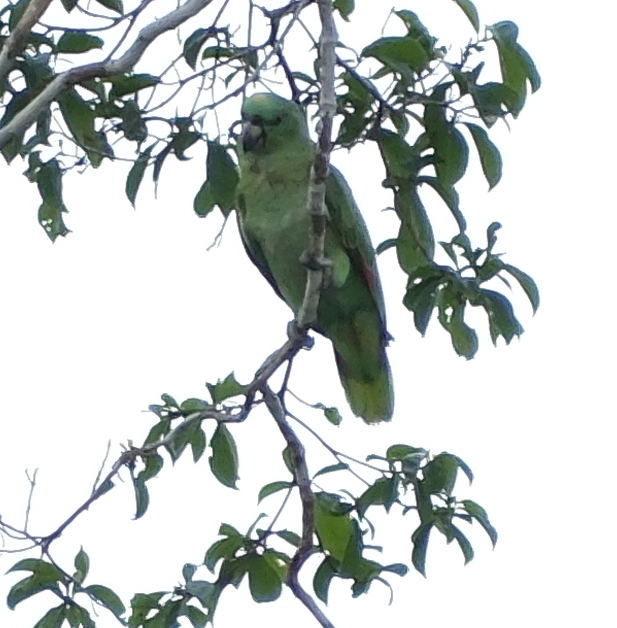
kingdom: Animalia
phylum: Chordata
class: Aves
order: Psittaciformes
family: Psittacidae
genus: Amazona
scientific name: Amazona ochrocephala
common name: Yellow-crowned amazon
